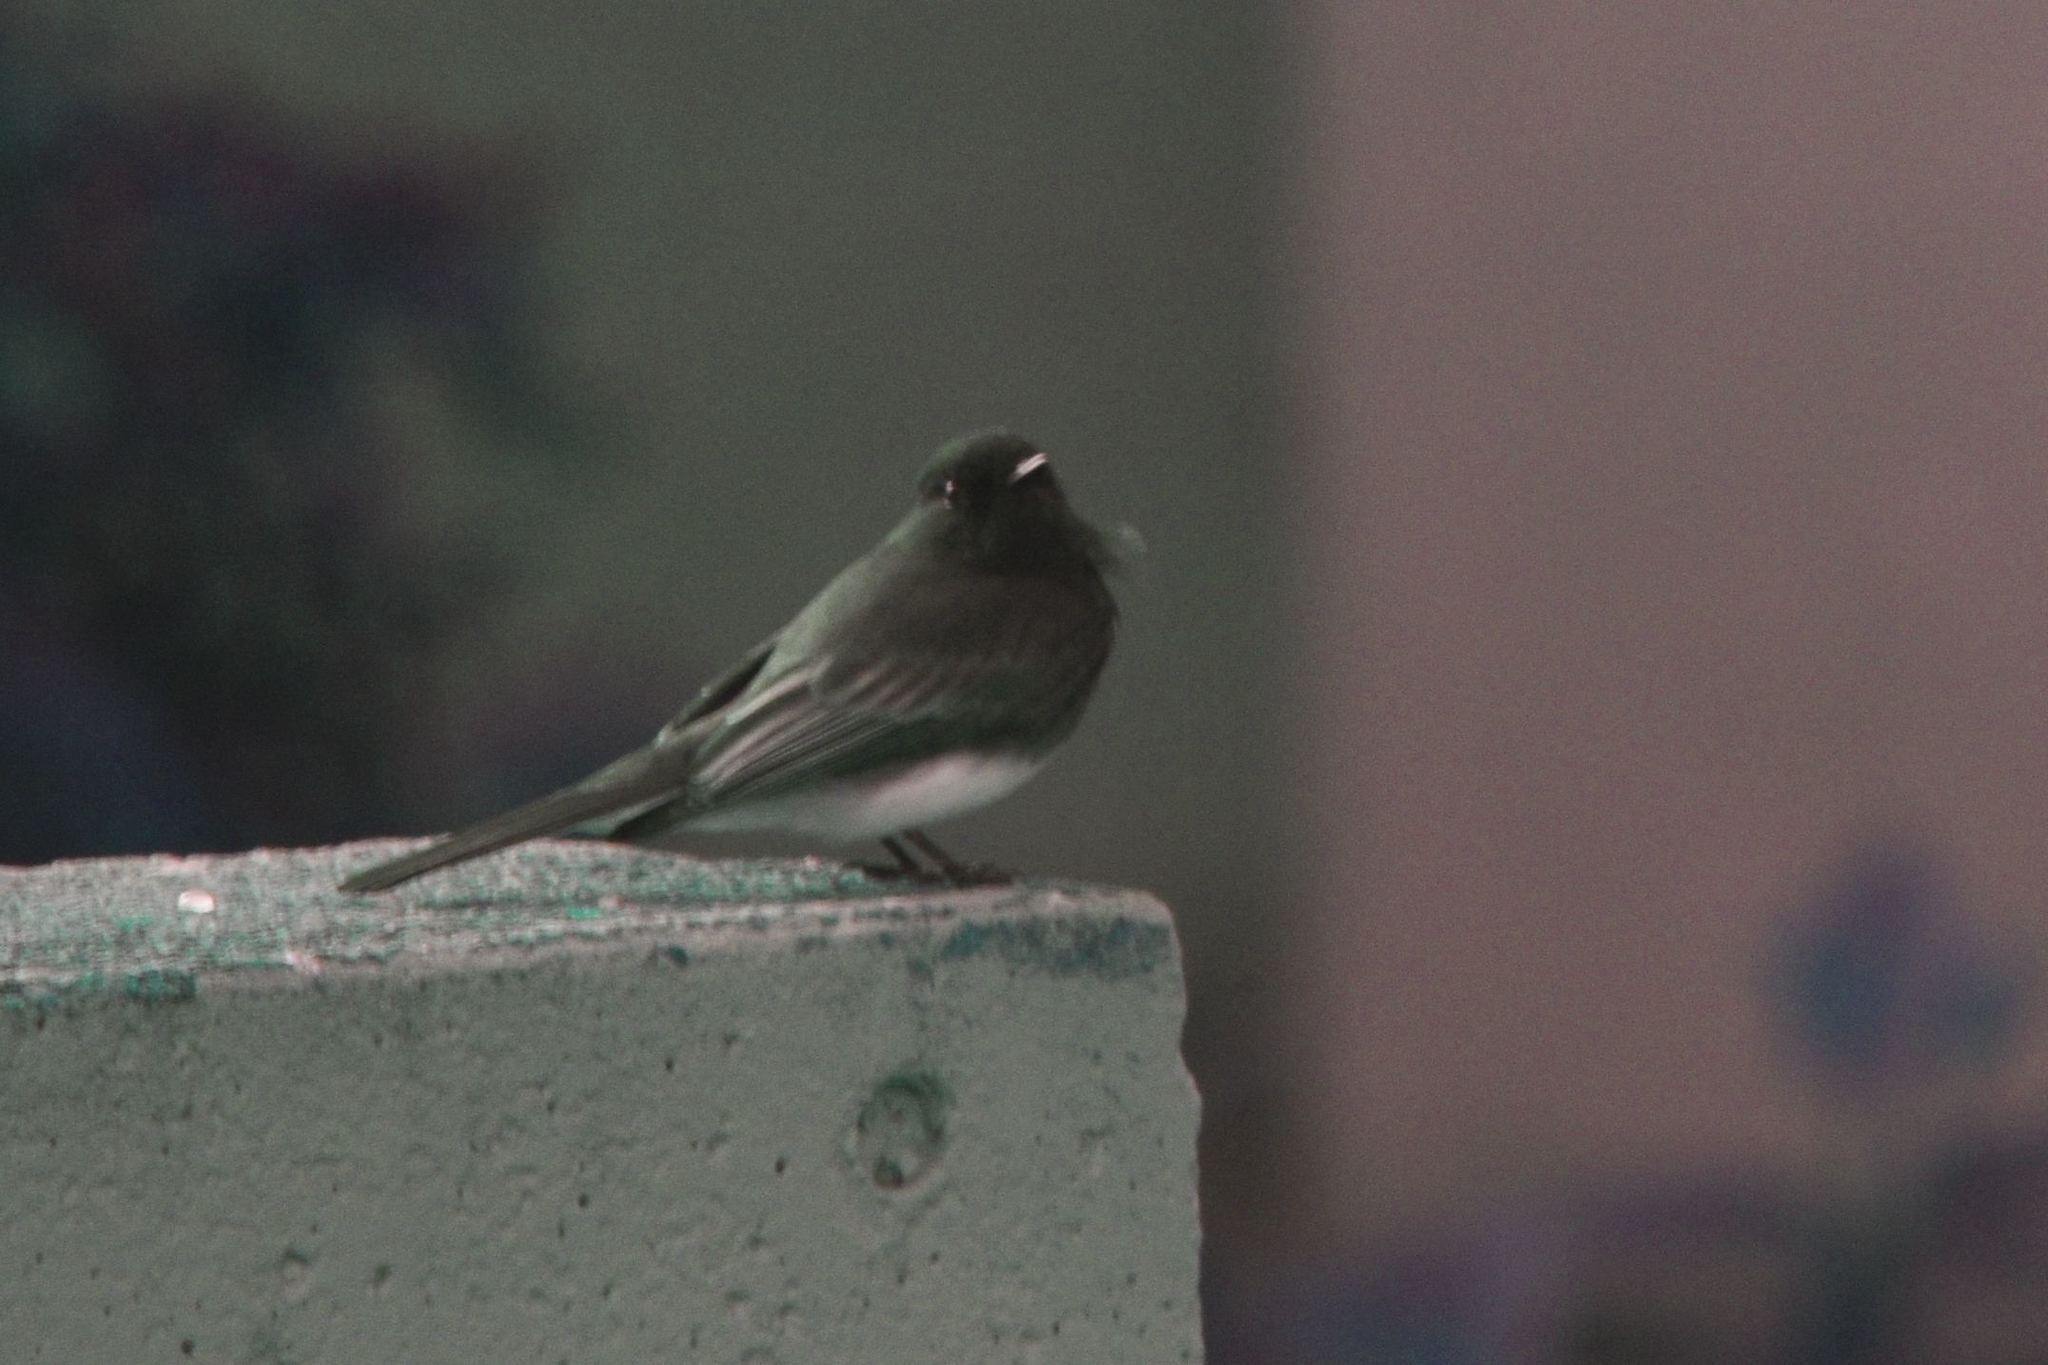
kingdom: Animalia
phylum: Chordata
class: Aves
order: Passeriformes
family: Tyrannidae
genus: Sayornis
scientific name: Sayornis nigricans
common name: Black phoebe
